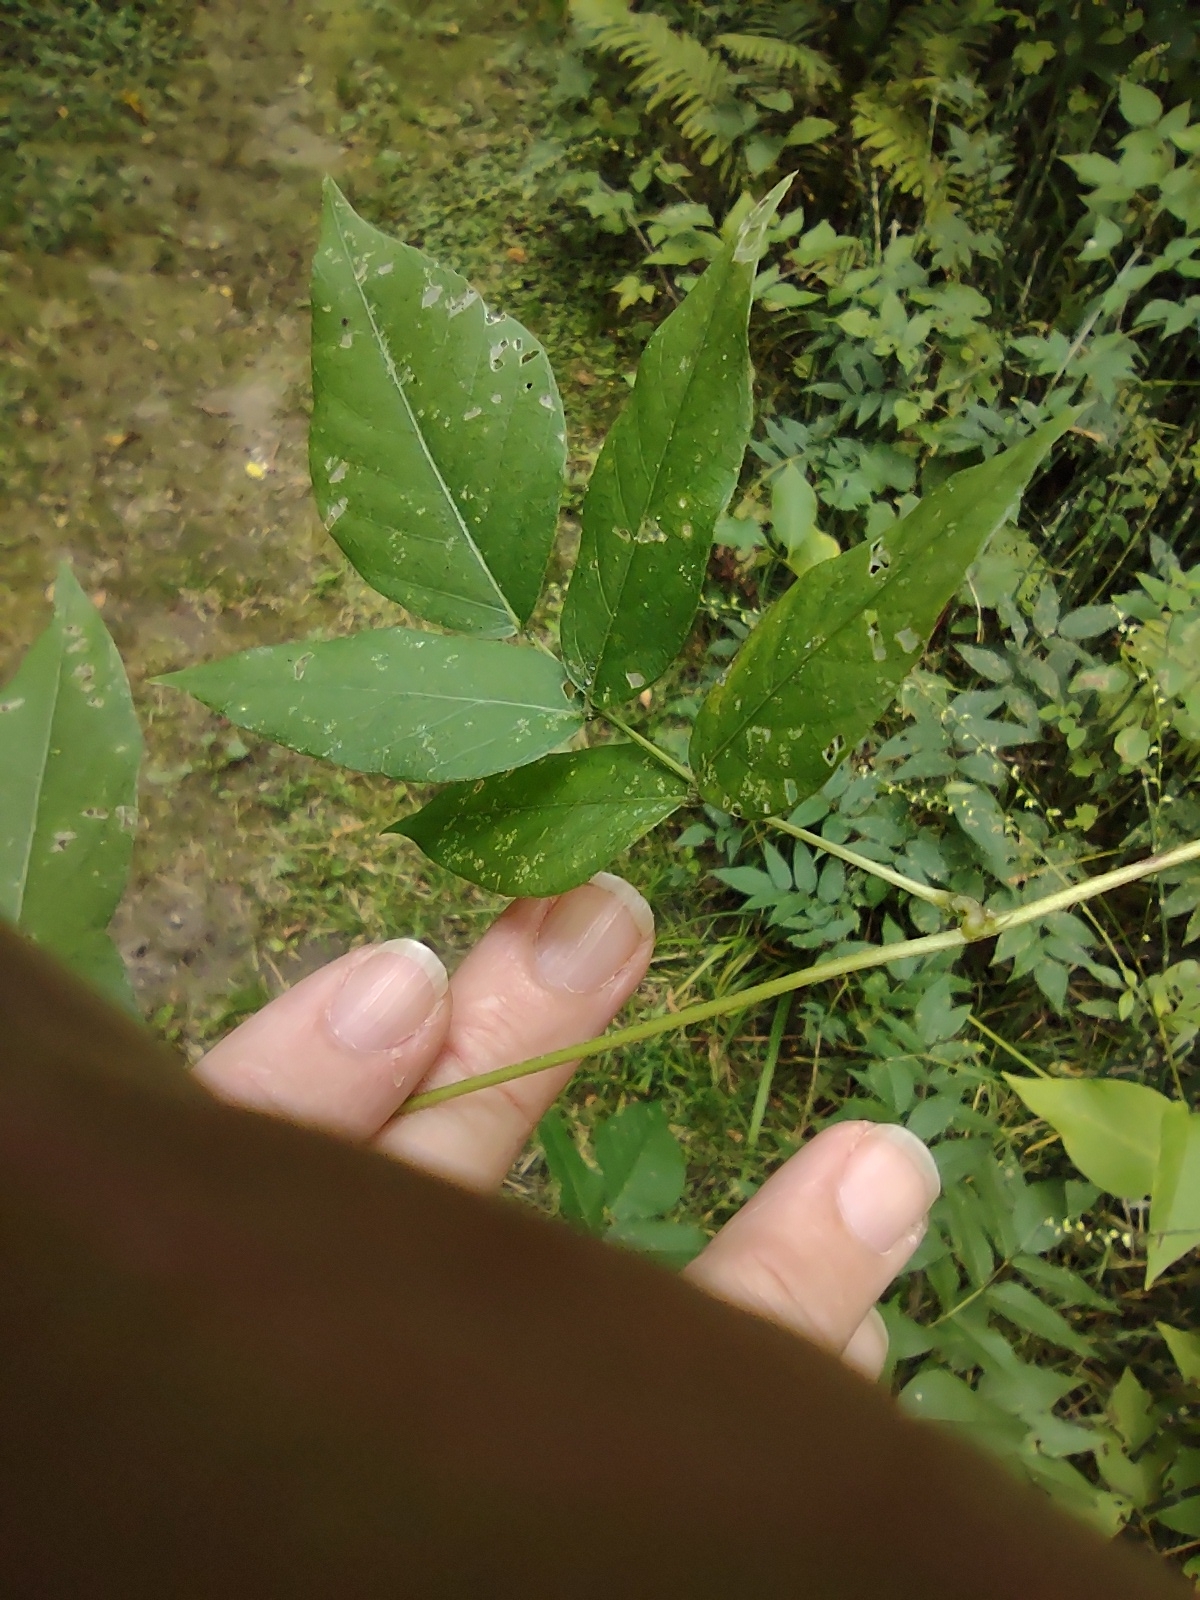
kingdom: Plantae
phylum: Tracheophyta
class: Magnoliopsida
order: Fabales
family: Fabaceae
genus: Apios
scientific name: Apios americana
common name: American potato-bean
